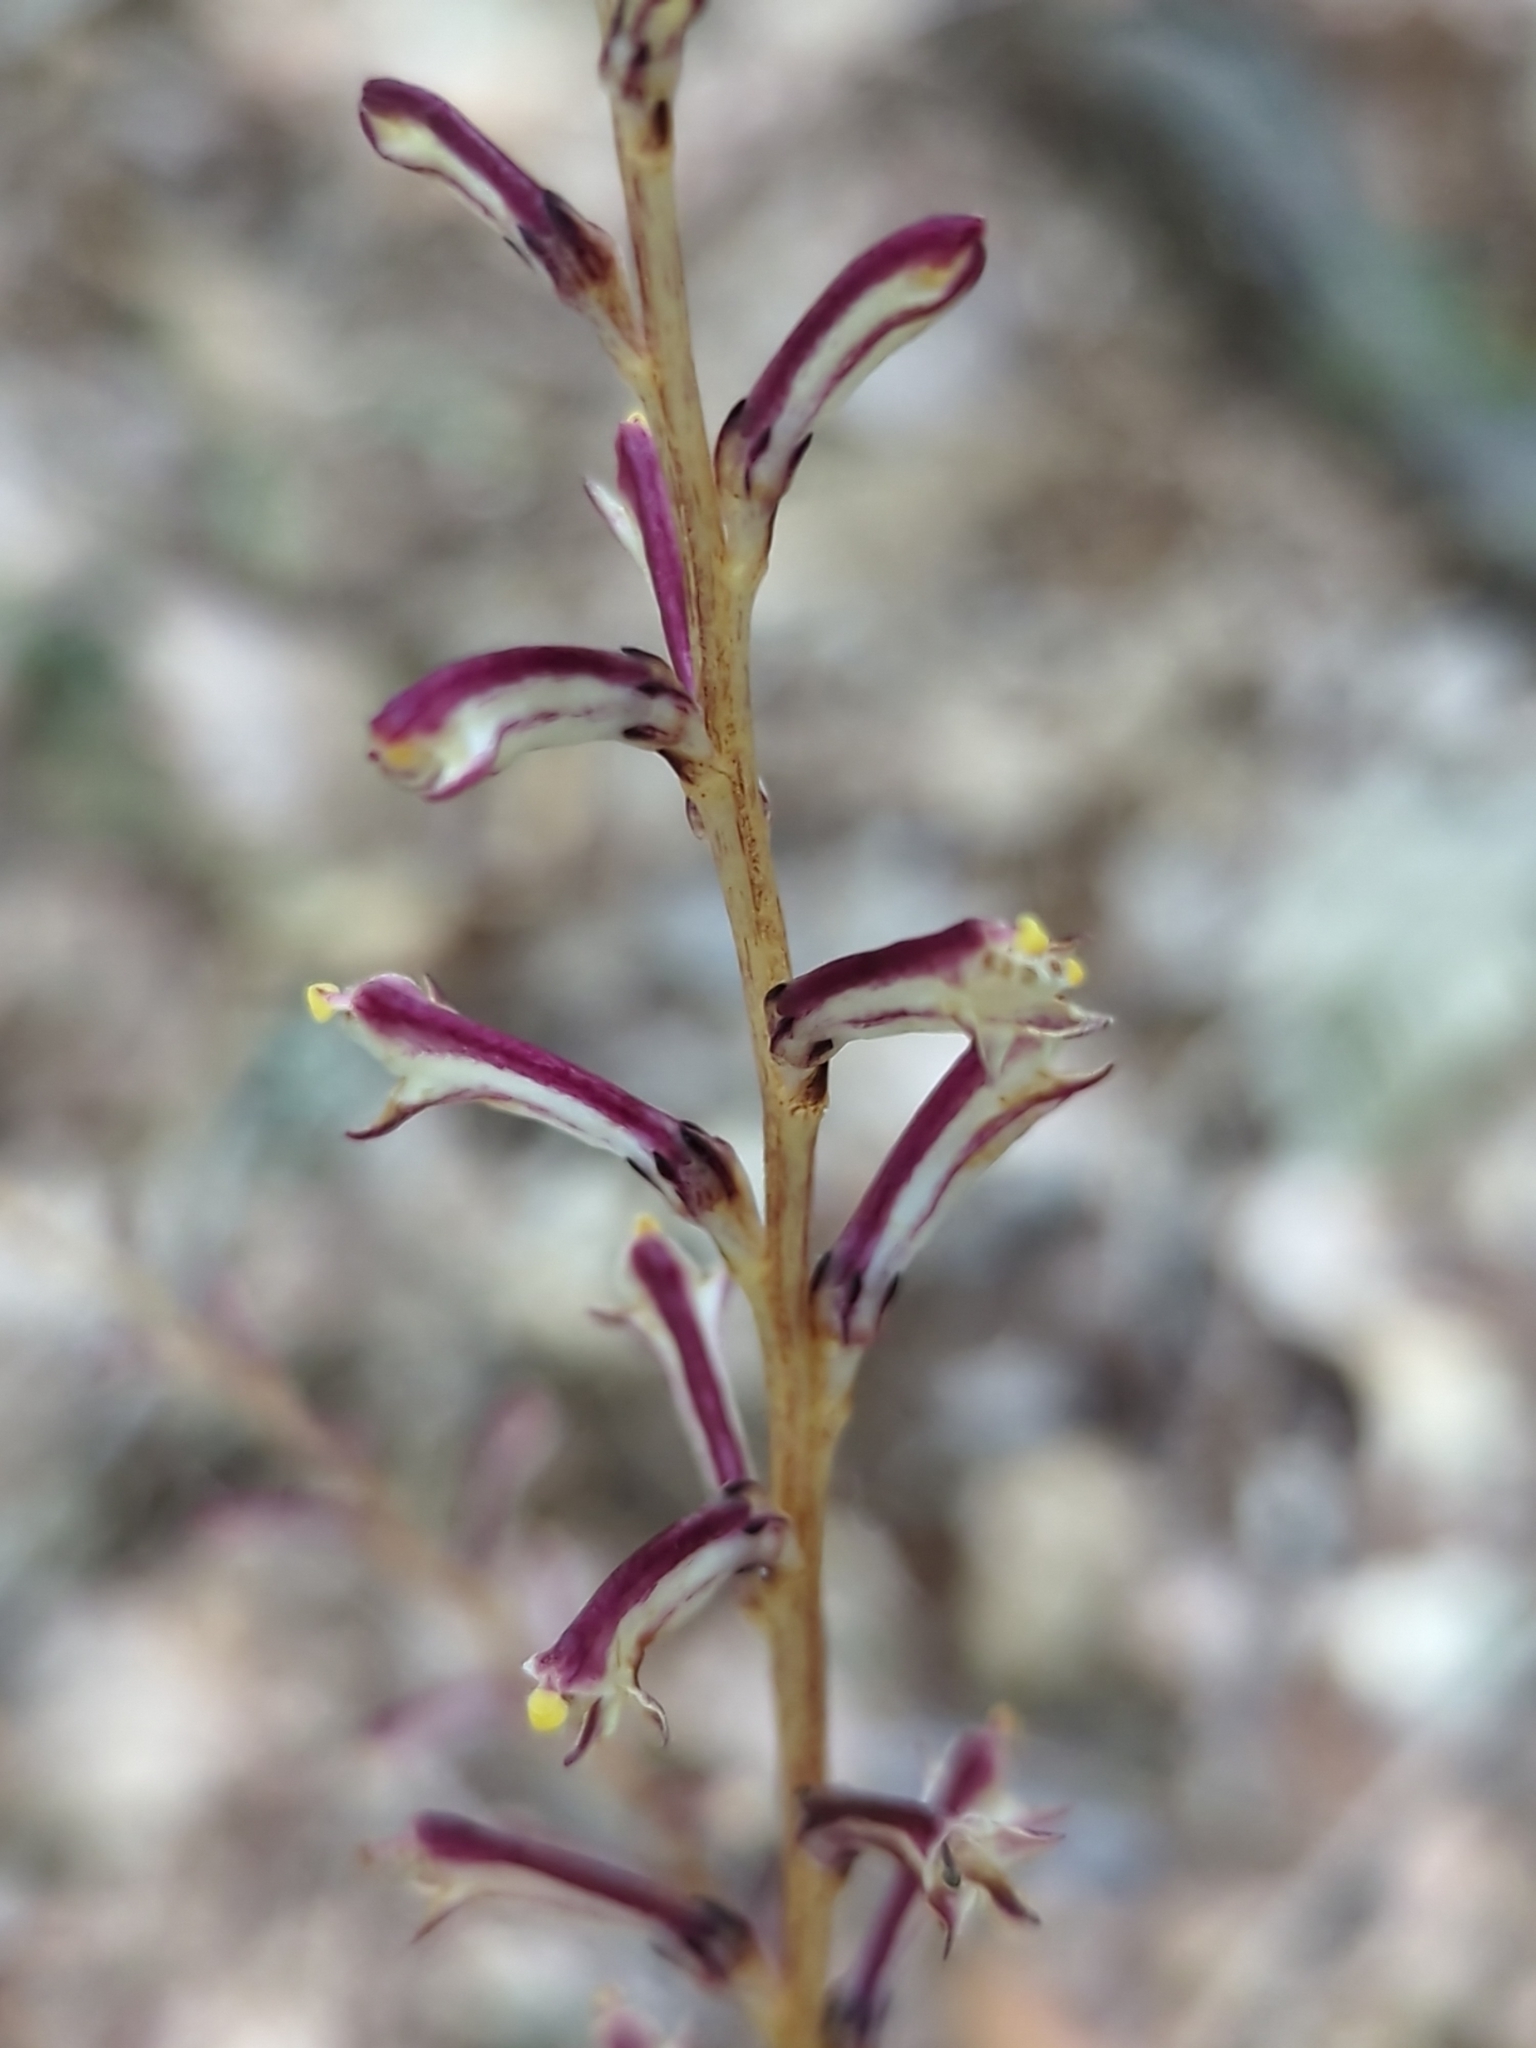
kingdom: Plantae
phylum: Tracheophyta
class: Magnoliopsida
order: Lamiales
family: Orobanchaceae
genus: Epifagus
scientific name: Epifagus virginiana
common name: Beechdrops
